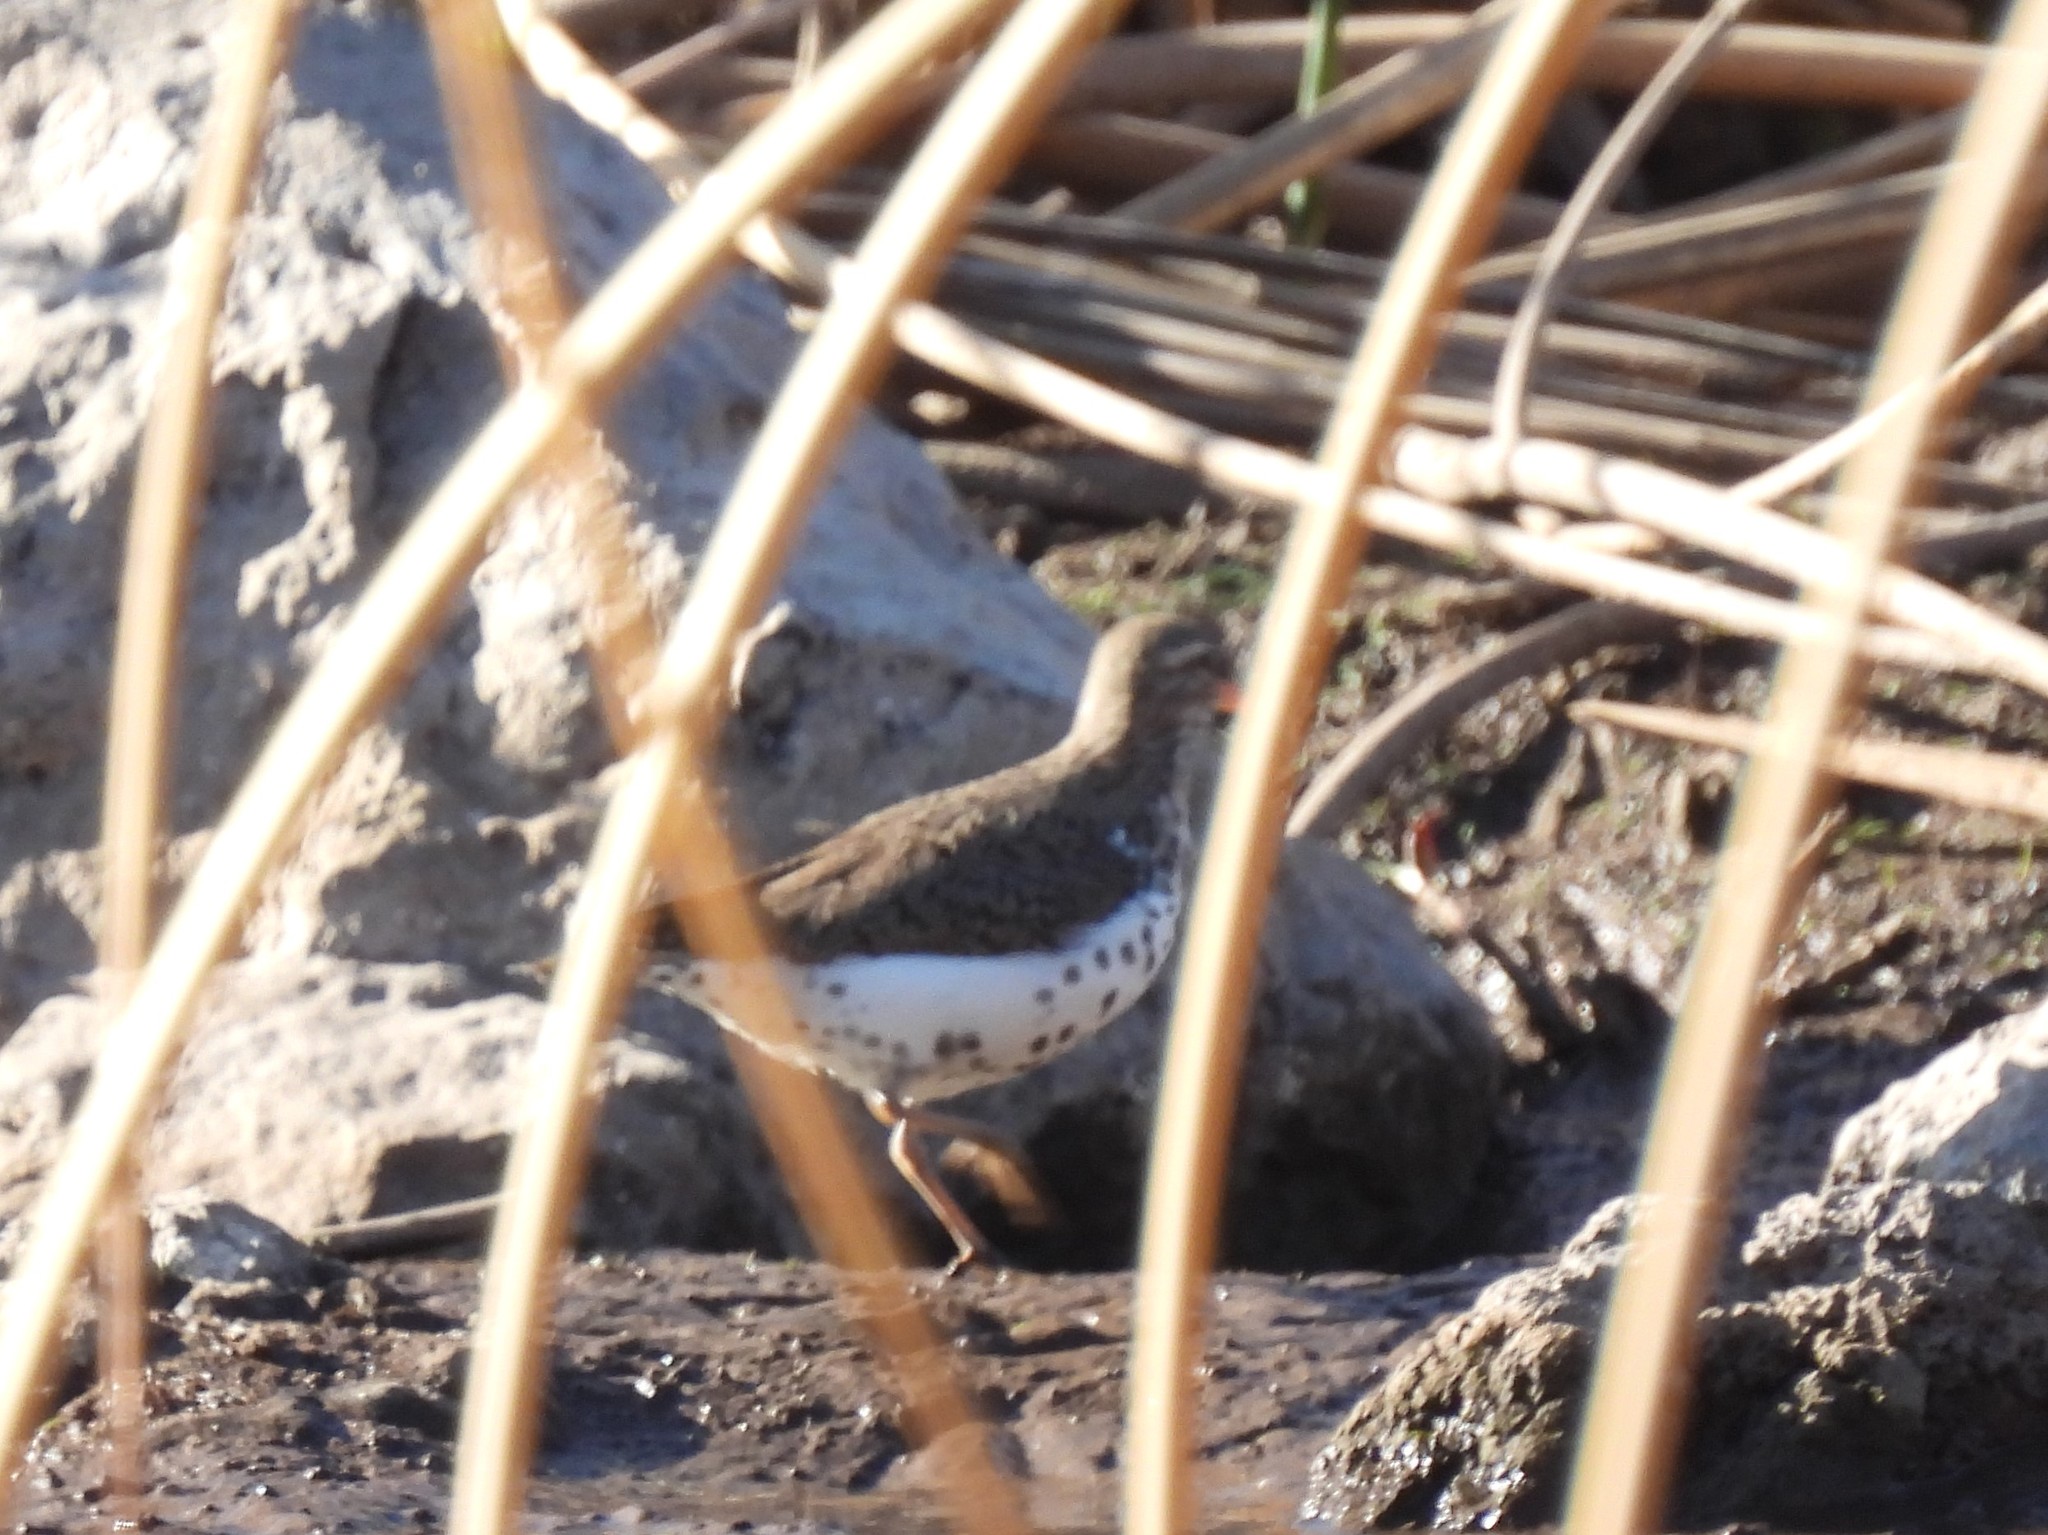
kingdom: Animalia
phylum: Chordata
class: Aves
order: Charadriiformes
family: Scolopacidae
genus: Actitis
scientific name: Actitis macularius
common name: Spotted sandpiper
